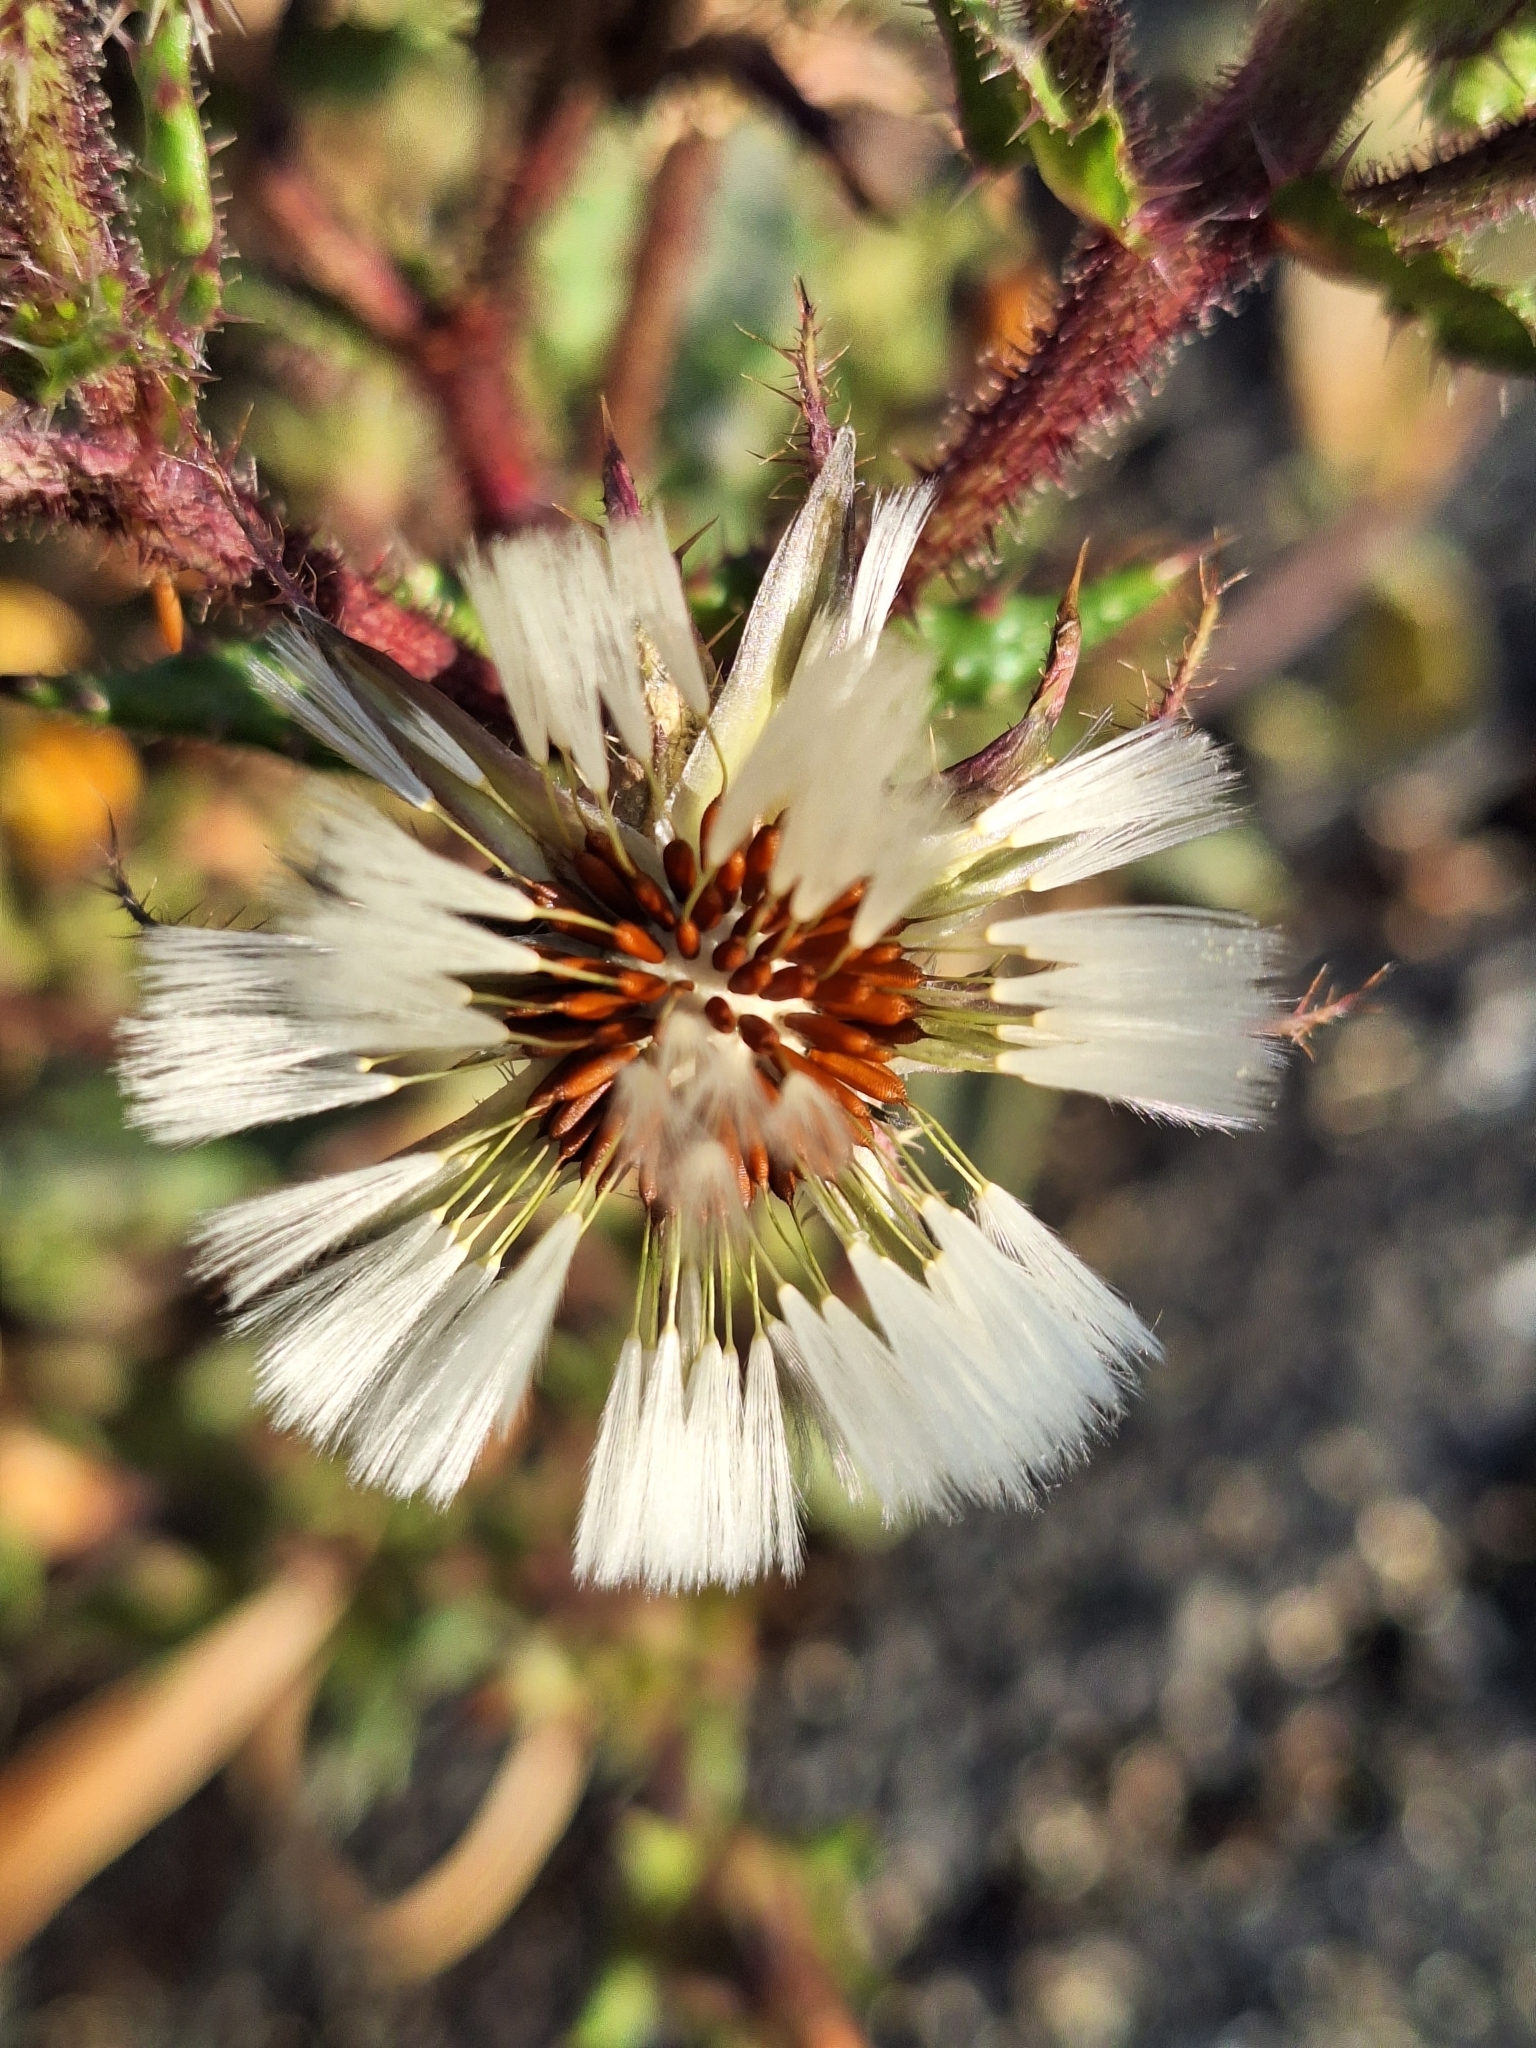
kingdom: Plantae
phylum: Tracheophyta
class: Magnoliopsida
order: Asterales
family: Asteraceae
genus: Helminthotheca
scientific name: Helminthotheca echioides
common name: Ox-tongue
